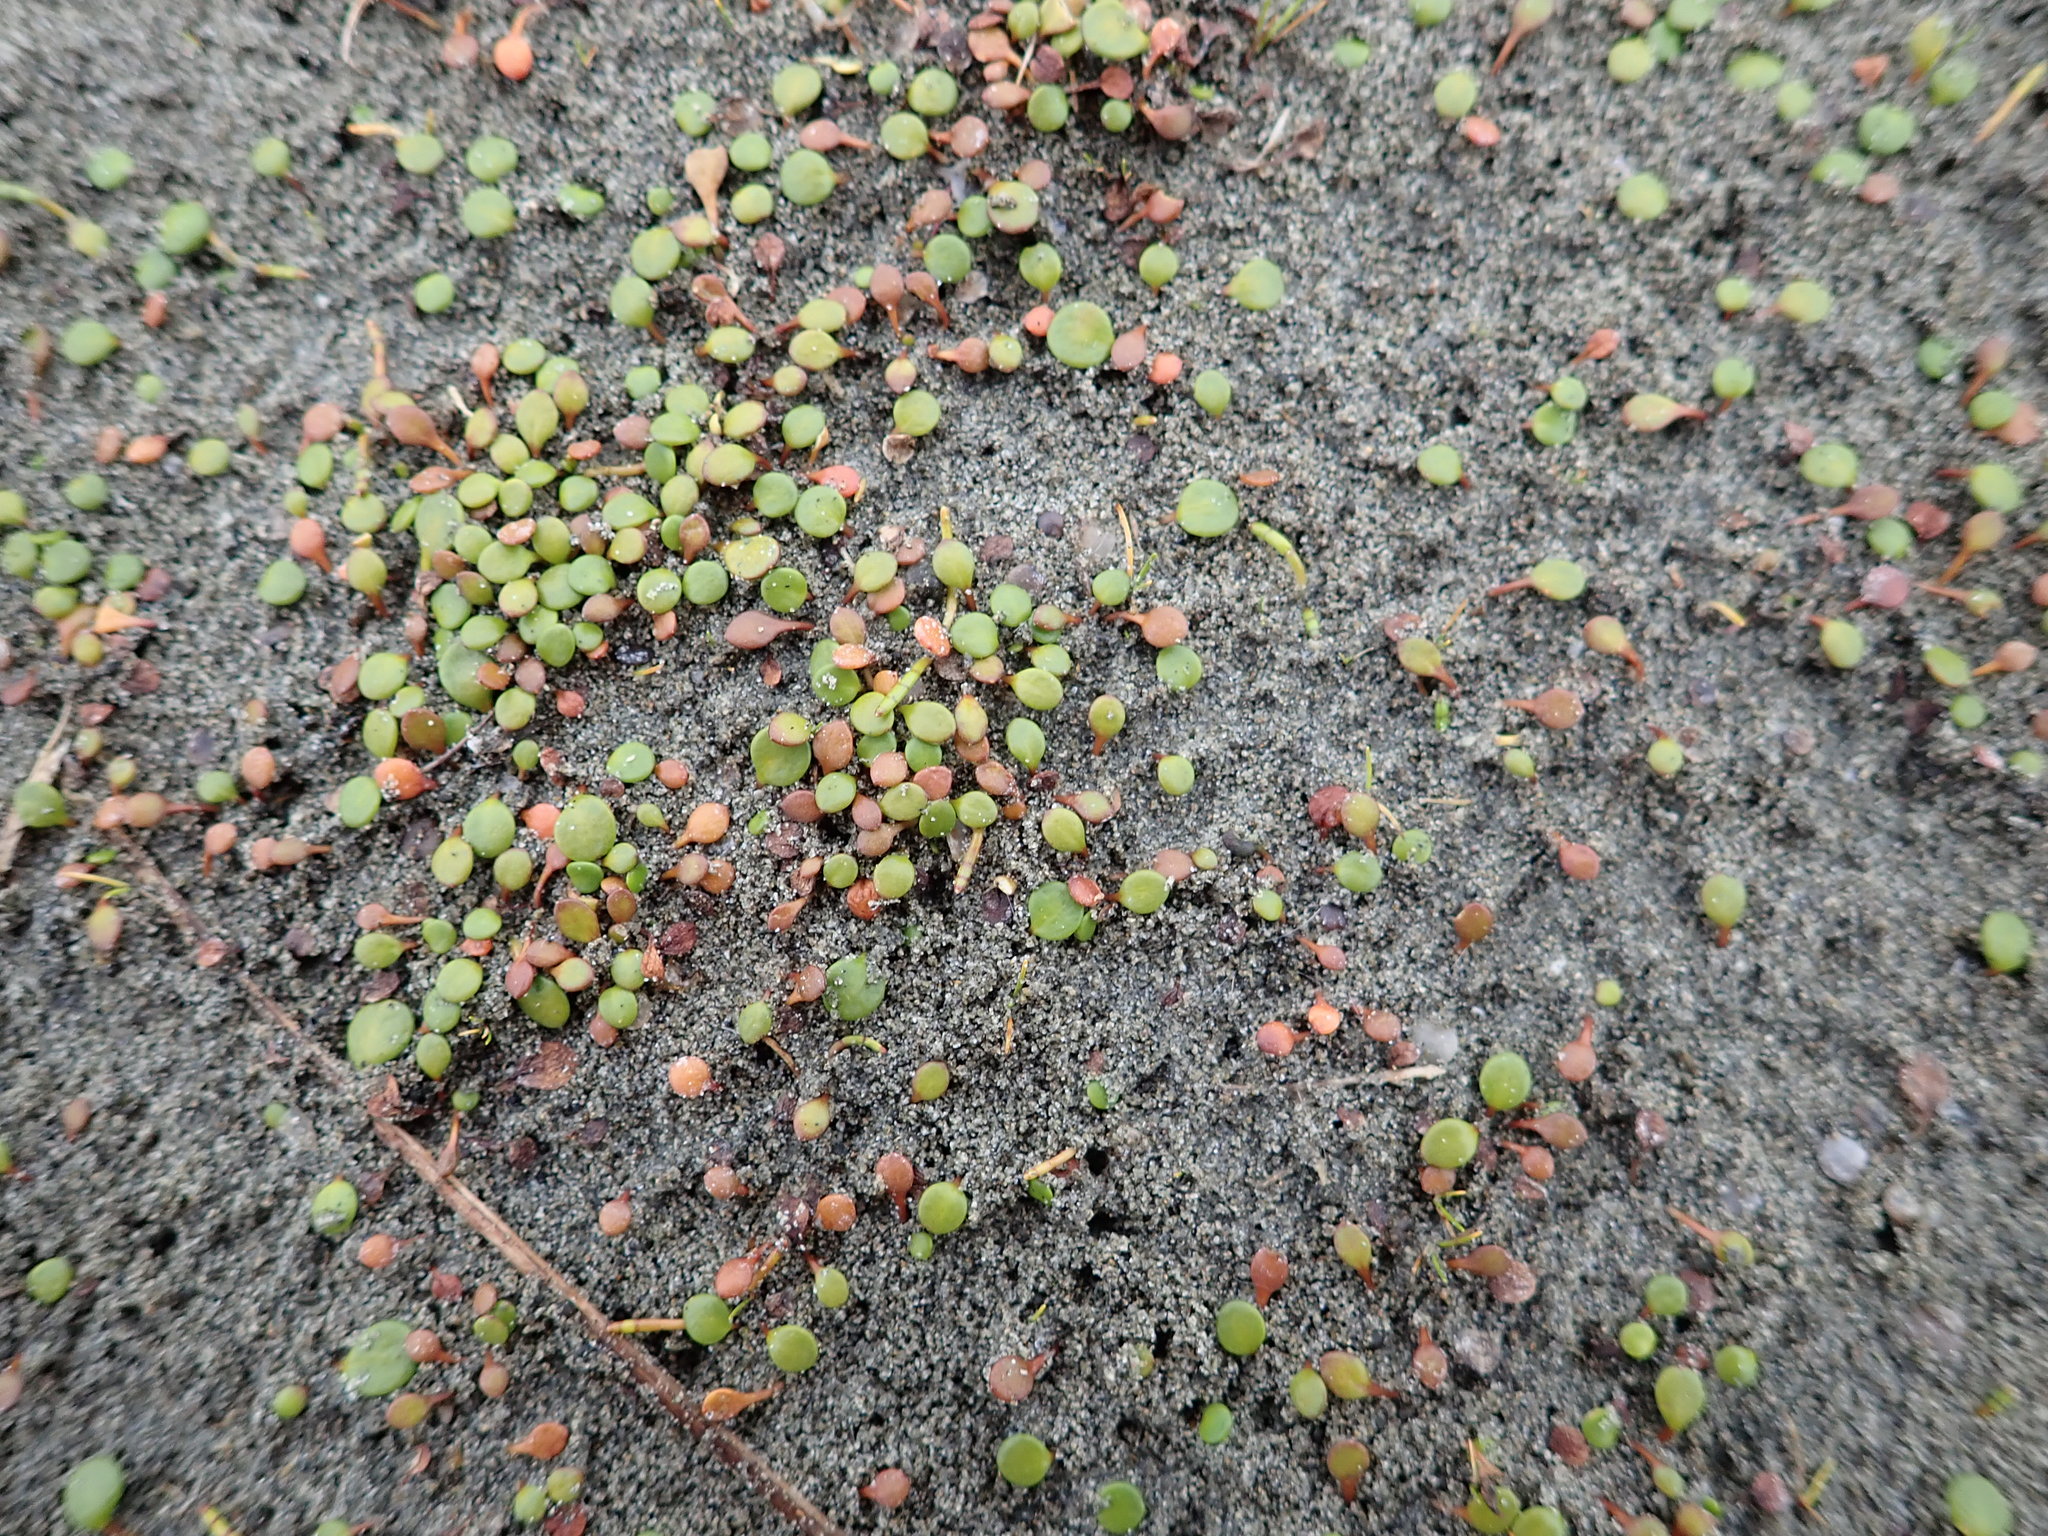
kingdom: Plantae
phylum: Tracheophyta
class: Magnoliopsida
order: Asterales
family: Goodeniaceae
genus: Goodenia
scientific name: Goodenia heenanii
